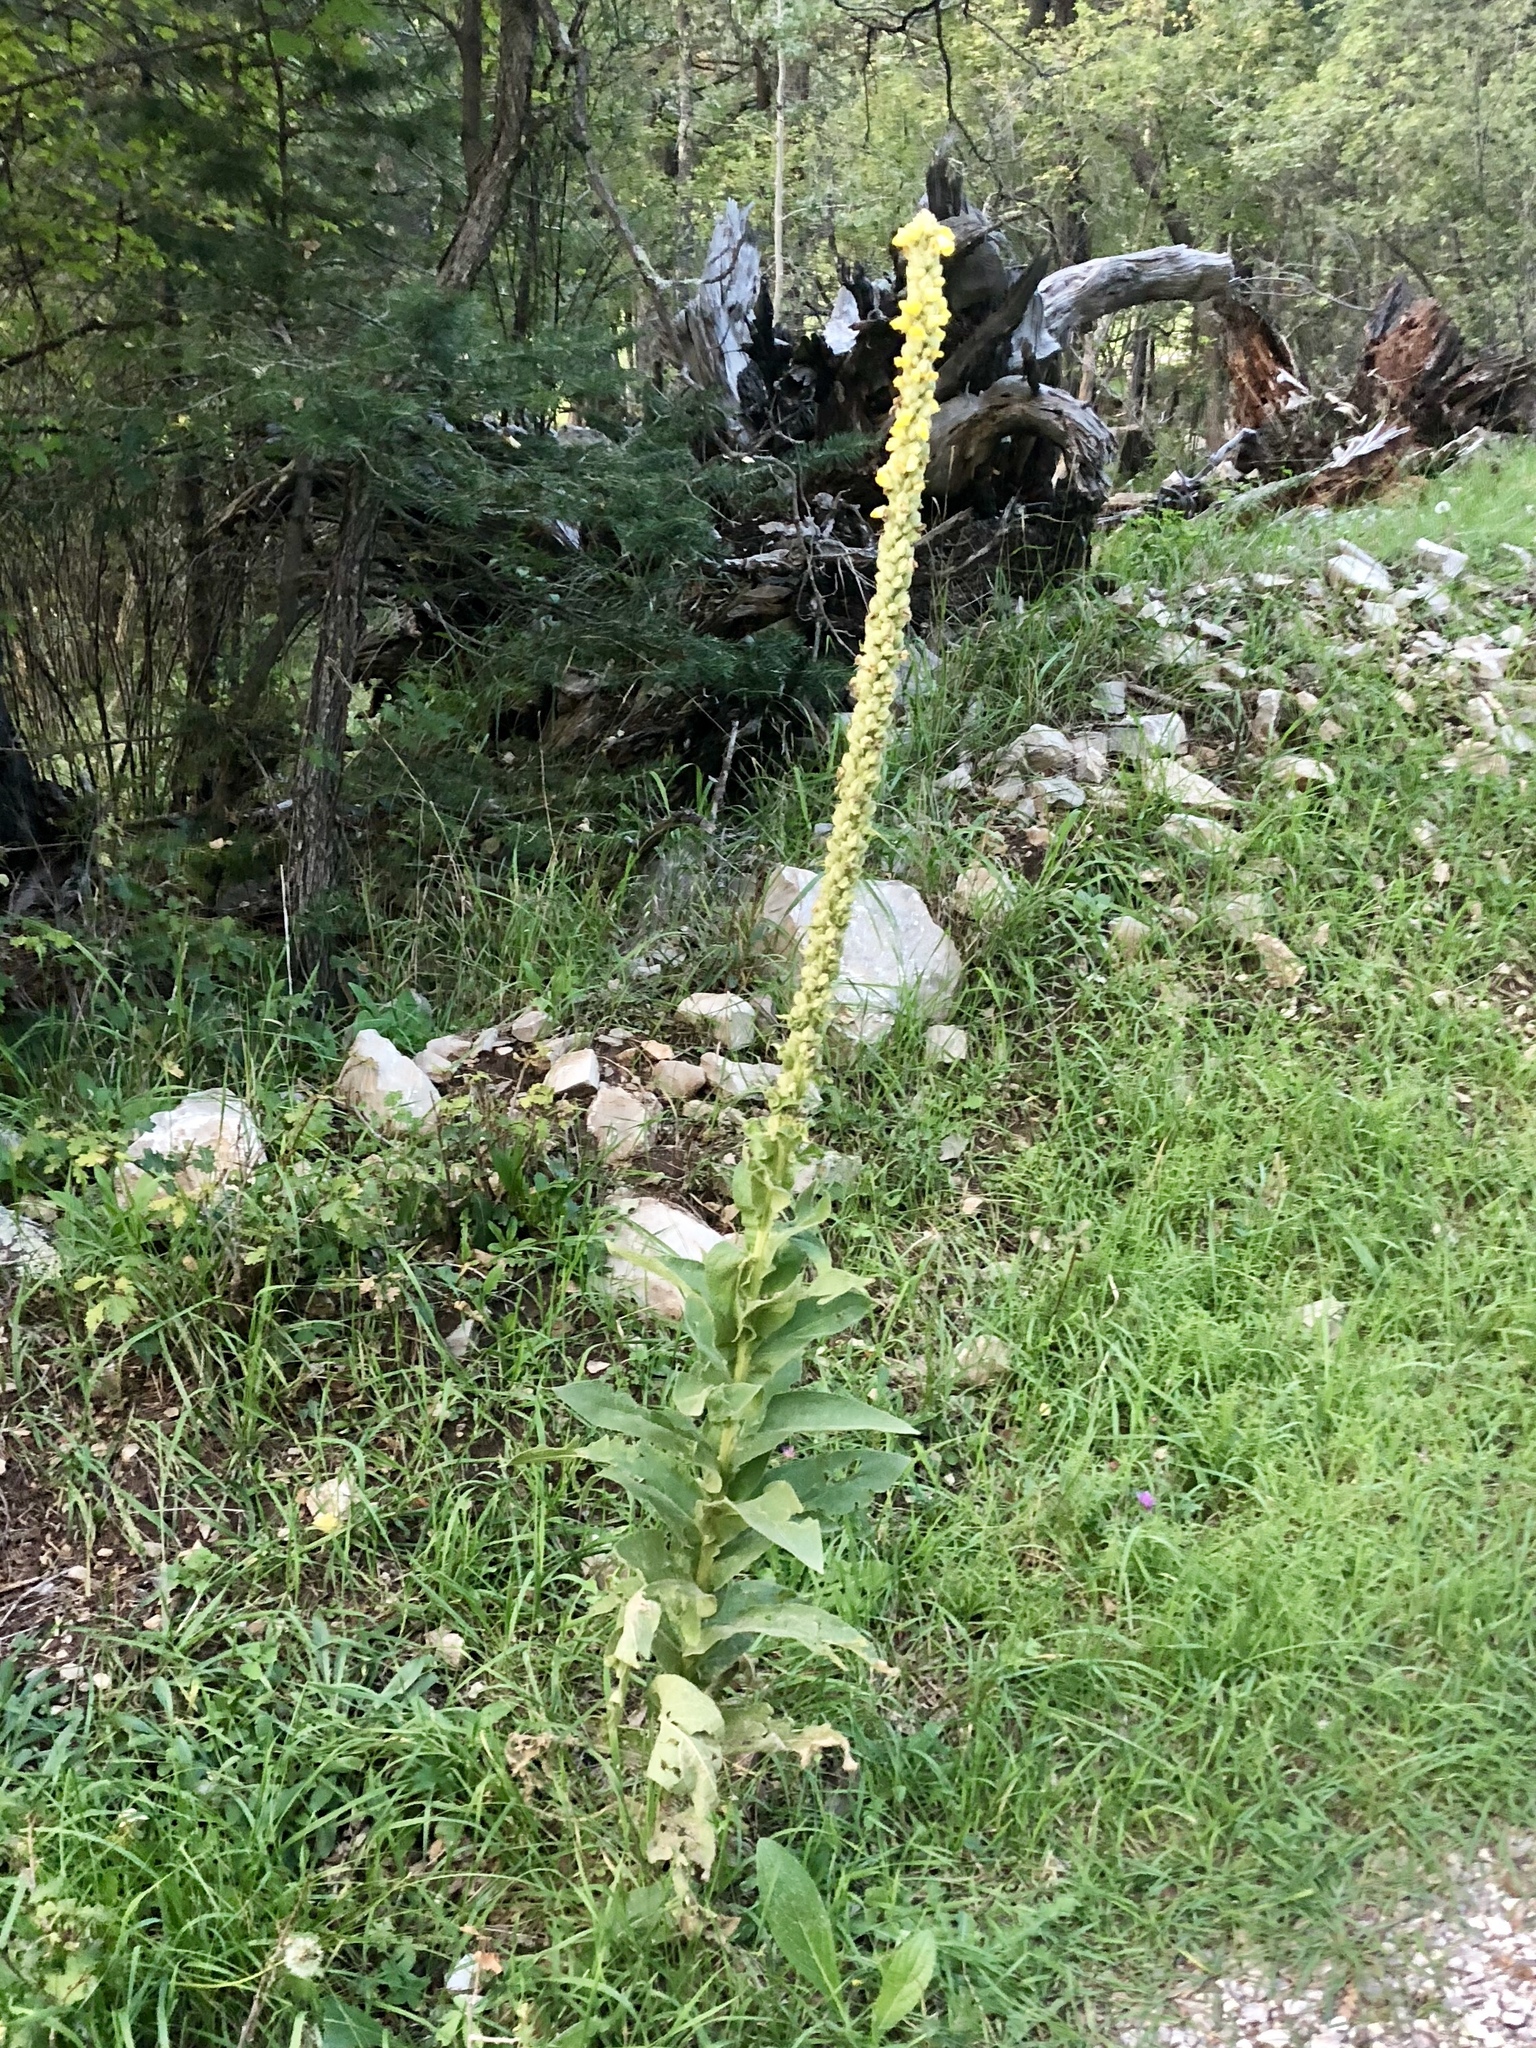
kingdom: Plantae
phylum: Tracheophyta
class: Magnoliopsida
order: Lamiales
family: Scrophulariaceae
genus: Verbascum
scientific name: Verbascum thapsus
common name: Common mullein
